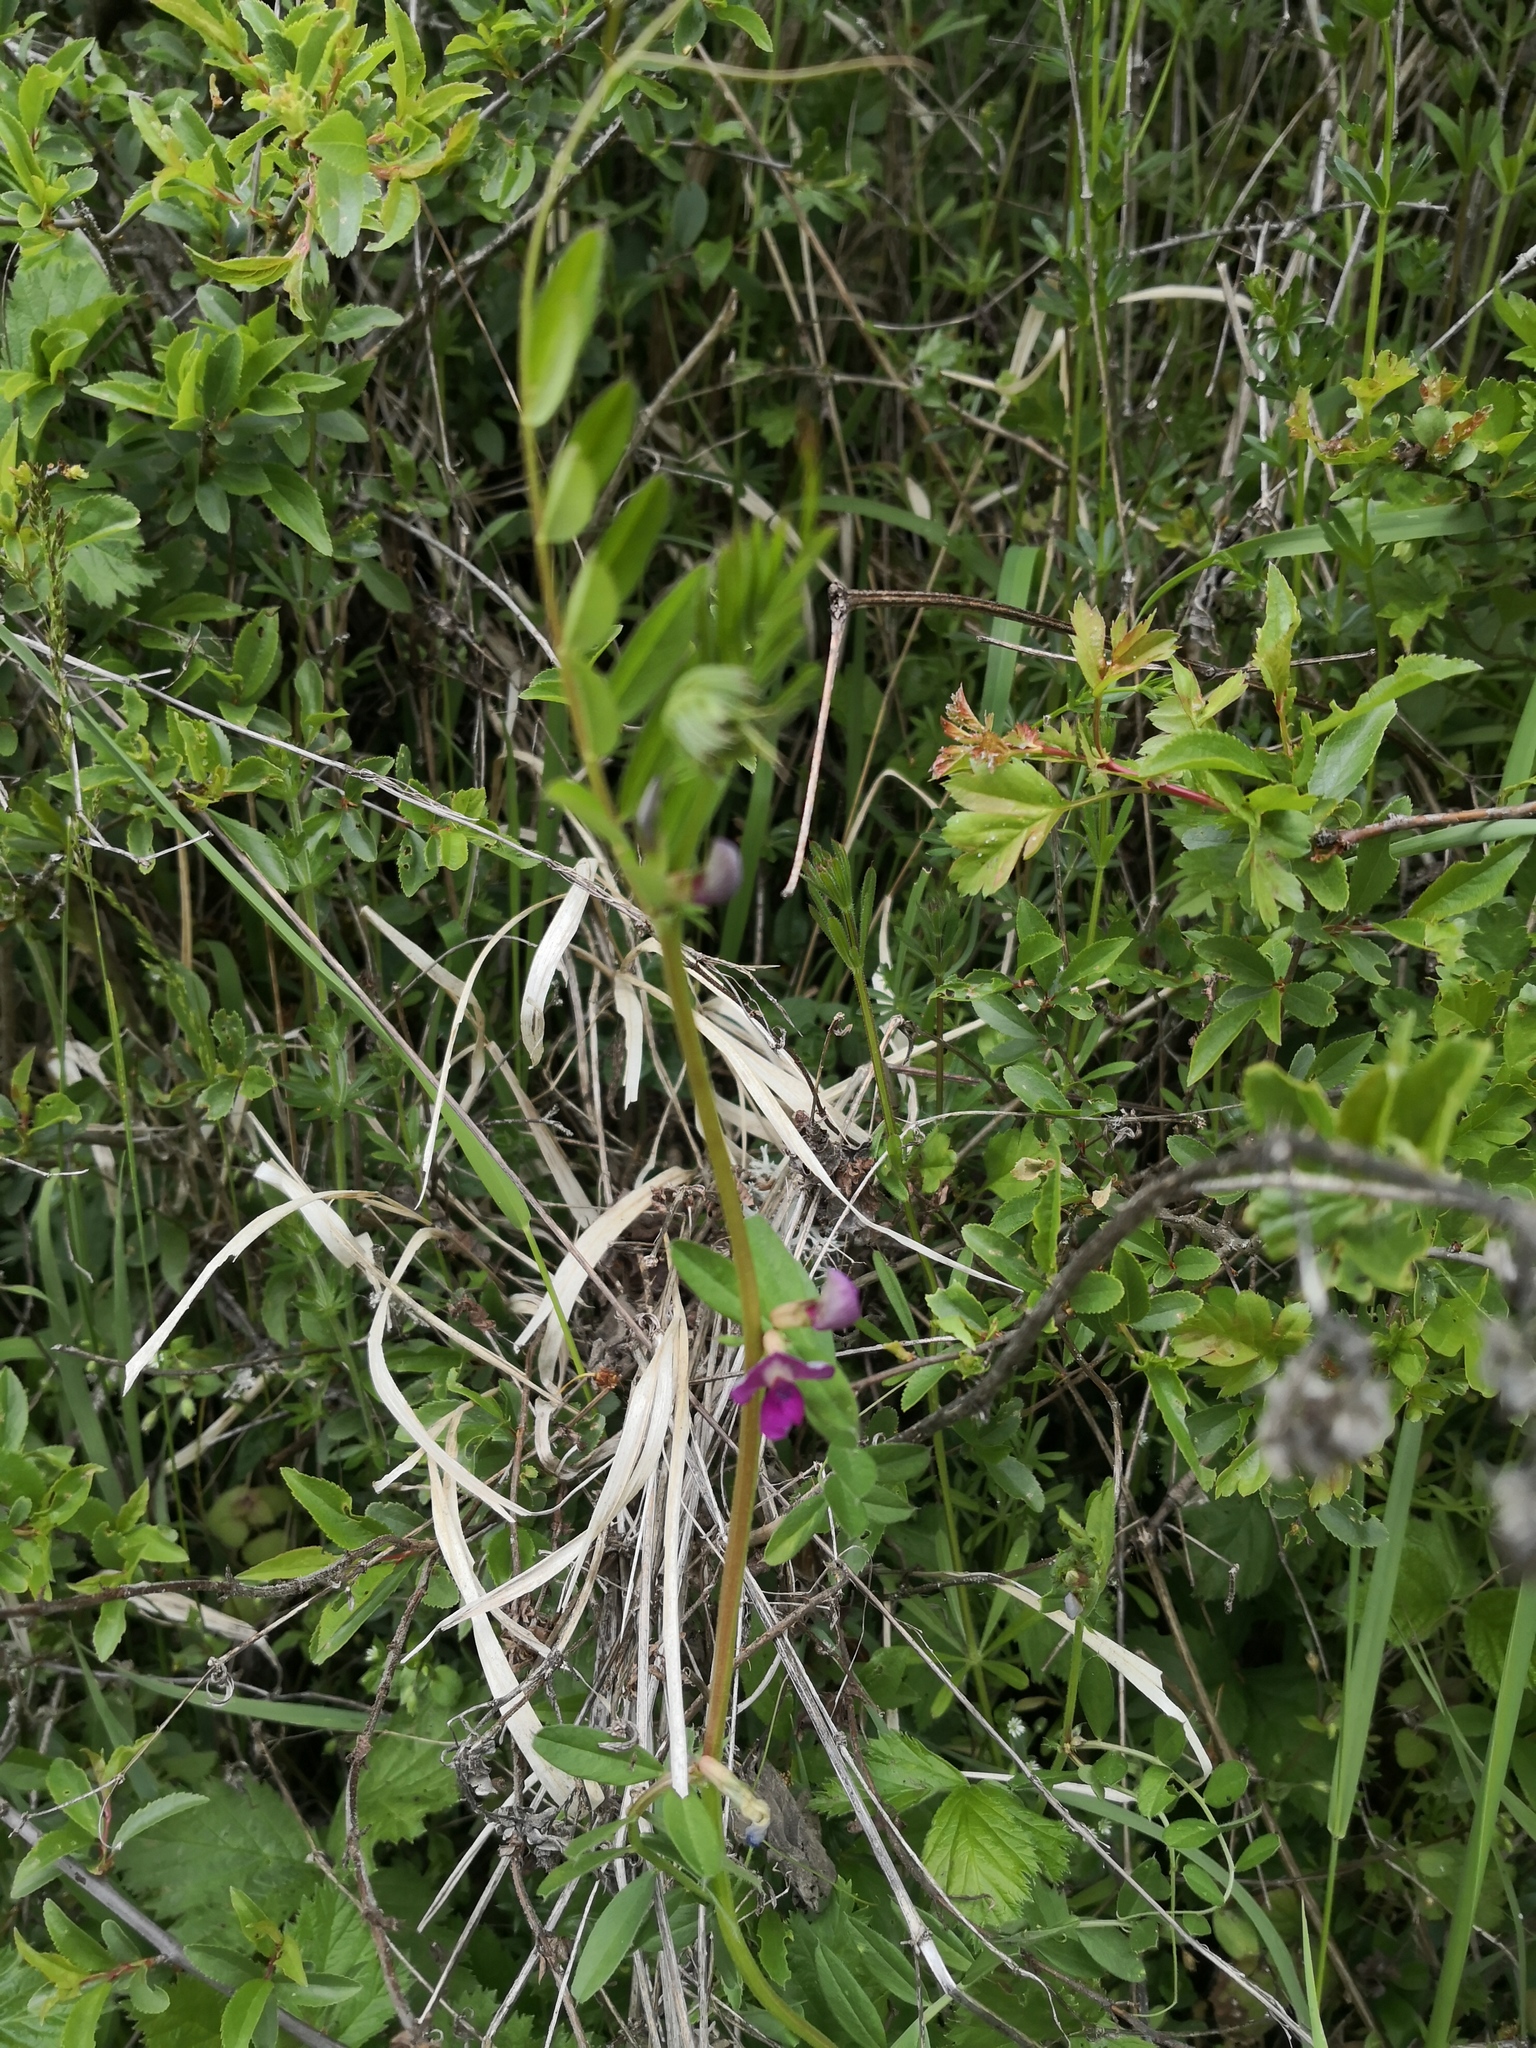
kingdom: Plantae
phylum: Tracheophyta
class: Magnoliopsida
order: Fabales
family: Fabaceae
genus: Vicia
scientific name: Vicia sativa
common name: Garden vetch
